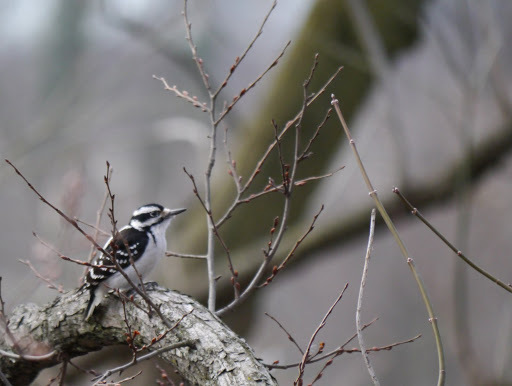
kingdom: Animalia
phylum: Chordata
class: Aves
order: Piciformes
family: Picidae
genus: Leuconotopicus
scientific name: Leuconotopicus villosus
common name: Hairy woodpecker
